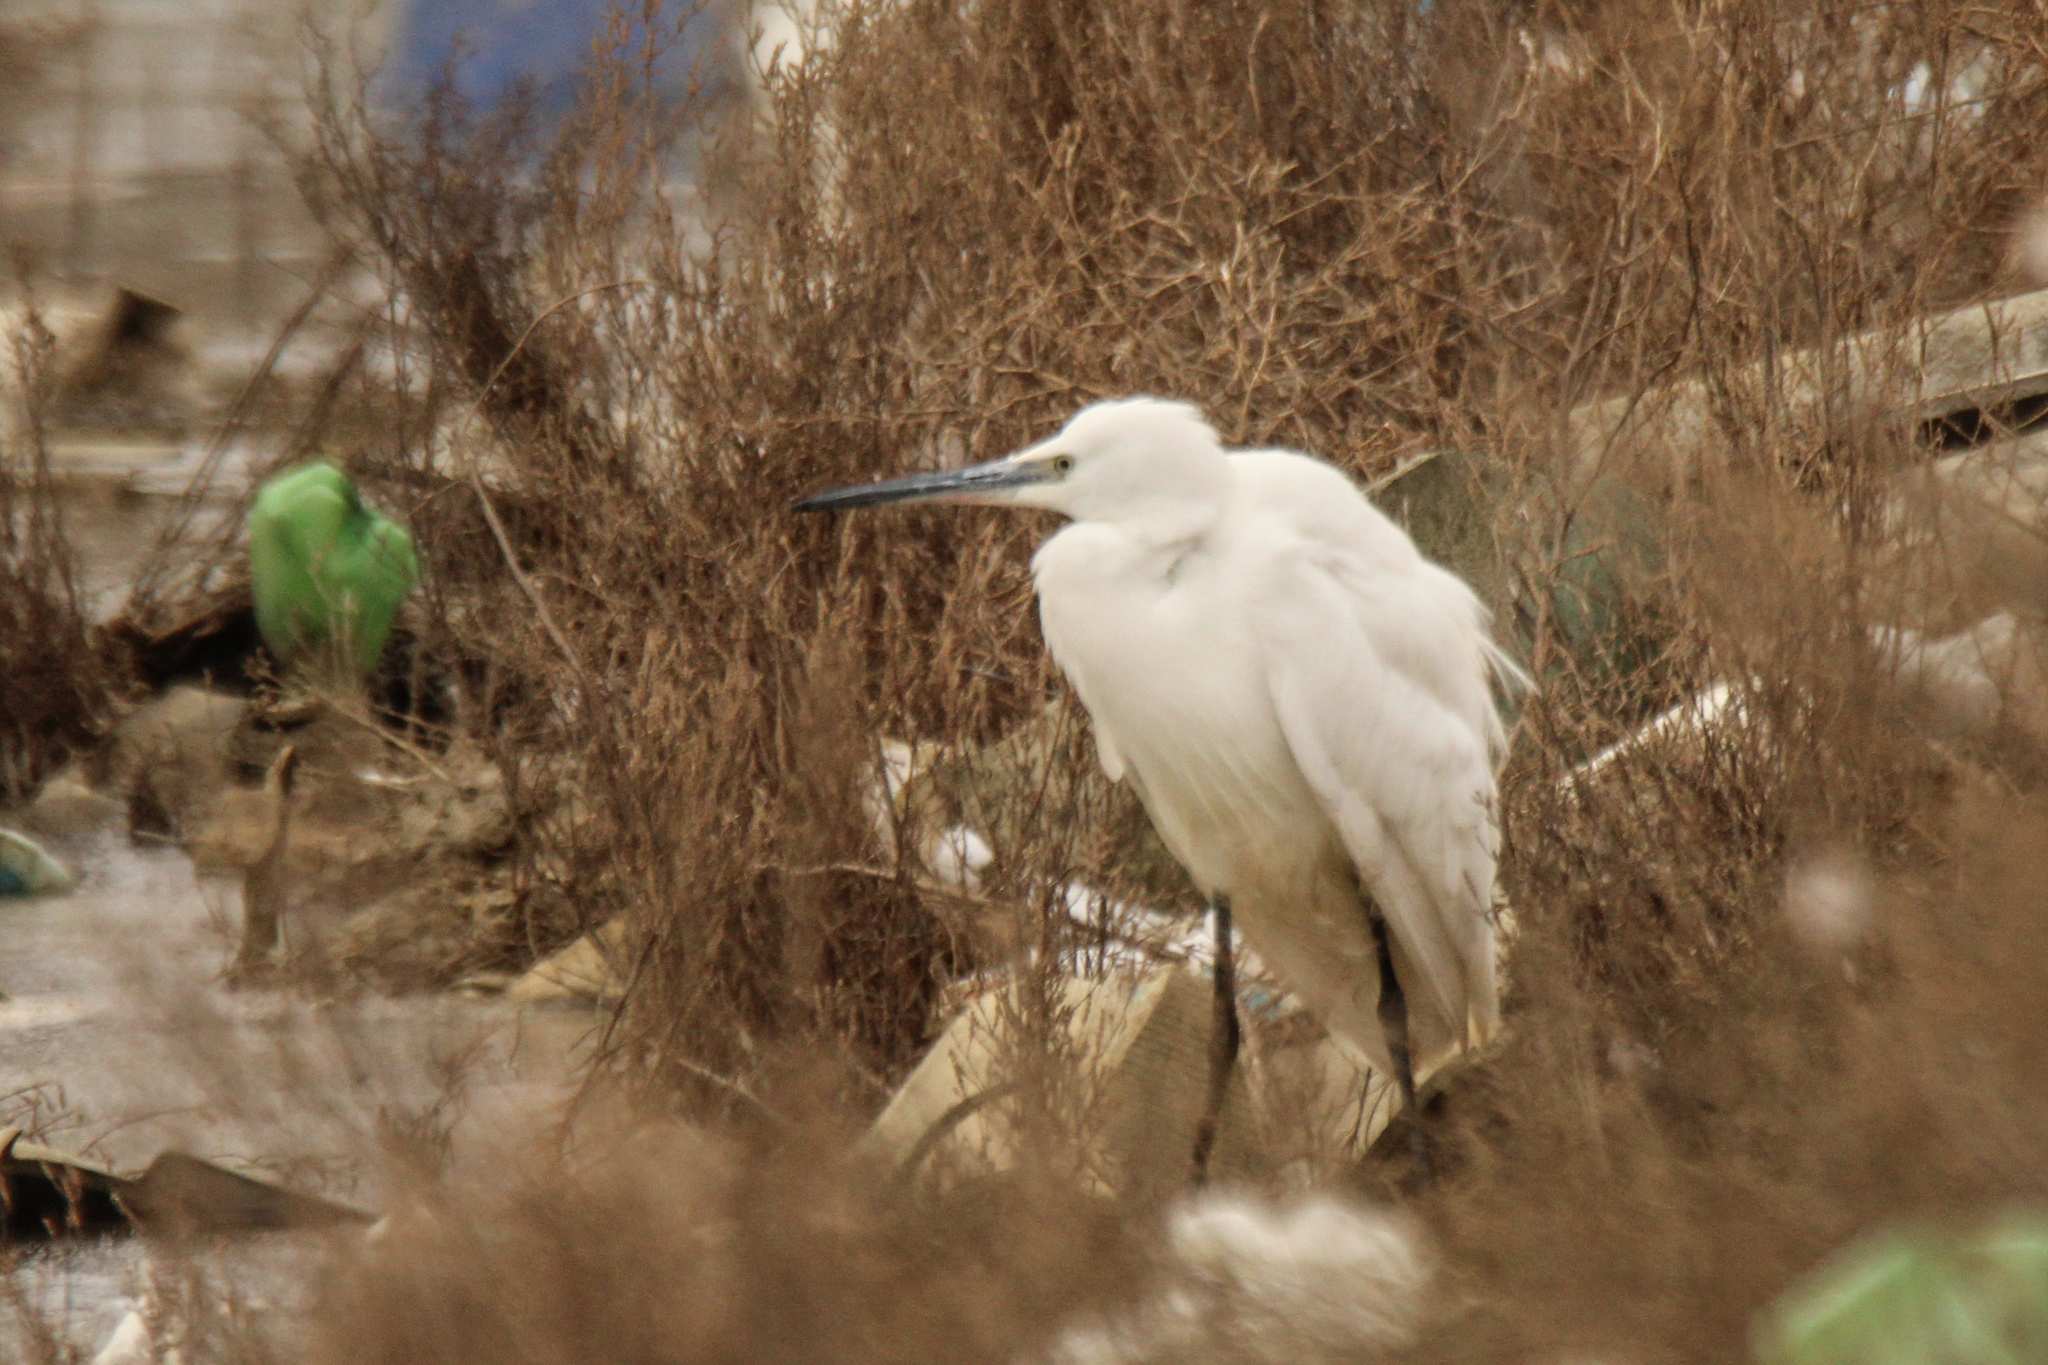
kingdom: Animalia
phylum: Chordata
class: Aves
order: Pelecaniformes
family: Ardeidae
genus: Egretta
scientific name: Egretta garzetta
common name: Little egret
